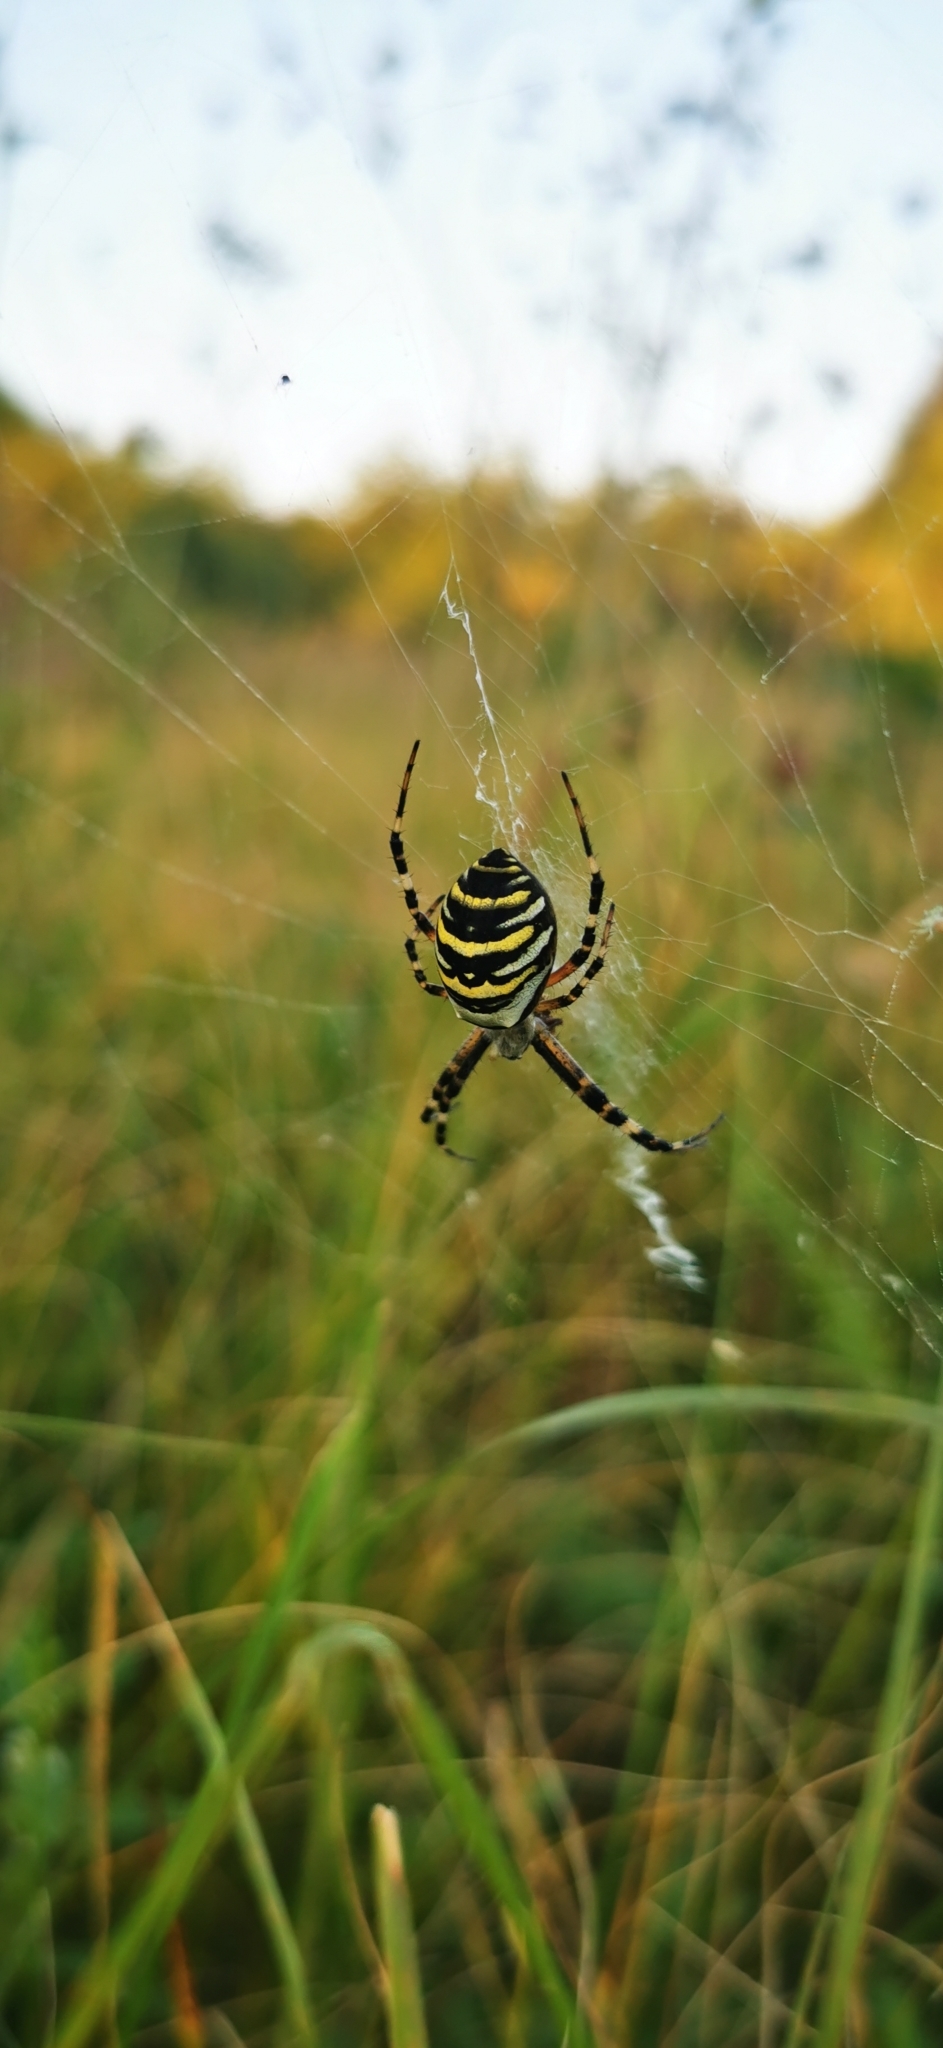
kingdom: Animalia
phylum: Arthropoda
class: Arachnida
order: Araneae
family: Araneidae
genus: Argiope
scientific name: Argiope bruennichi
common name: Wasp spider
